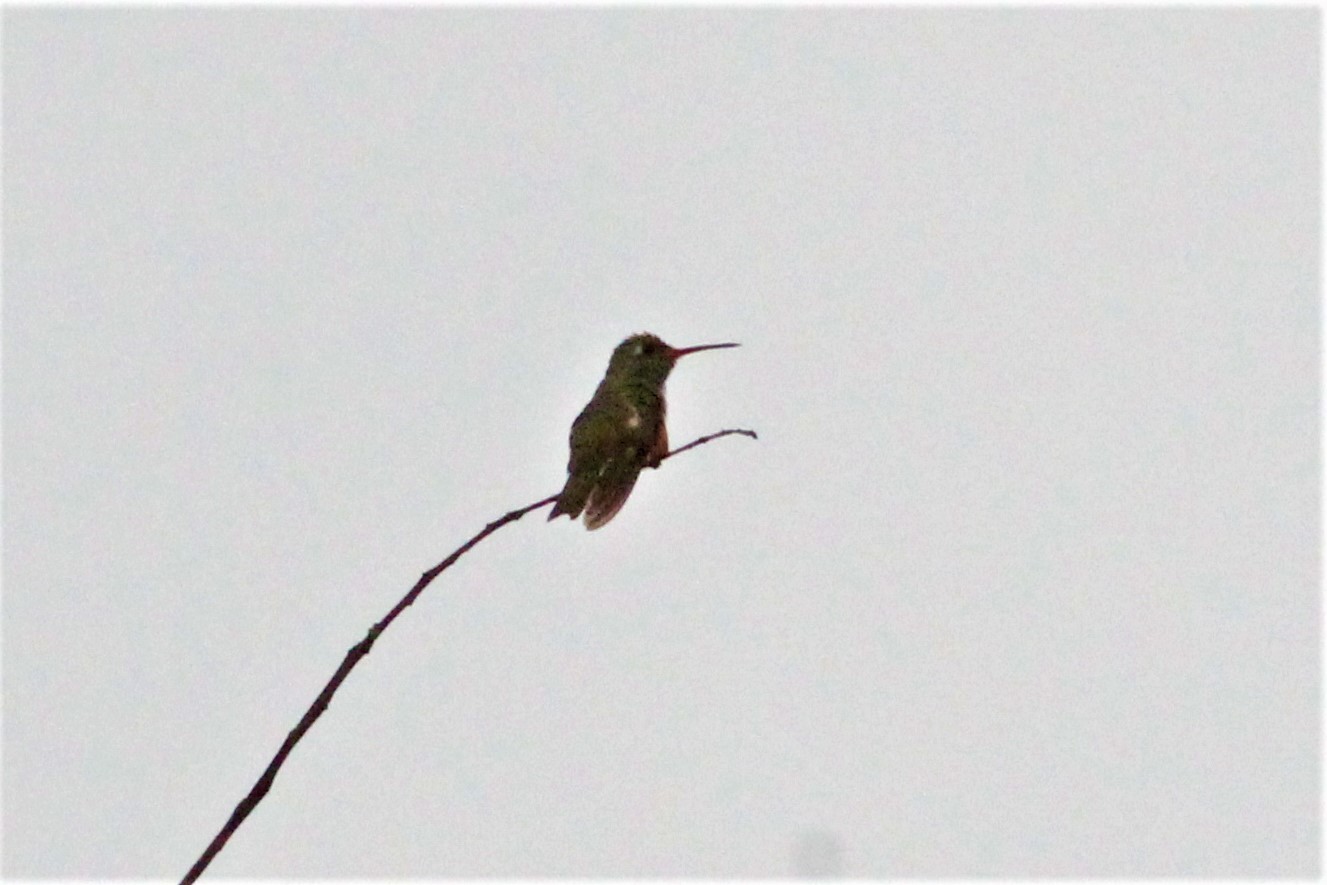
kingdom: Animalia
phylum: Chordata
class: Aves
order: Apodiformes
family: Trochilidae
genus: Amazilis
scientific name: Amazilis amazilia
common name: Amazilia hummingbird
